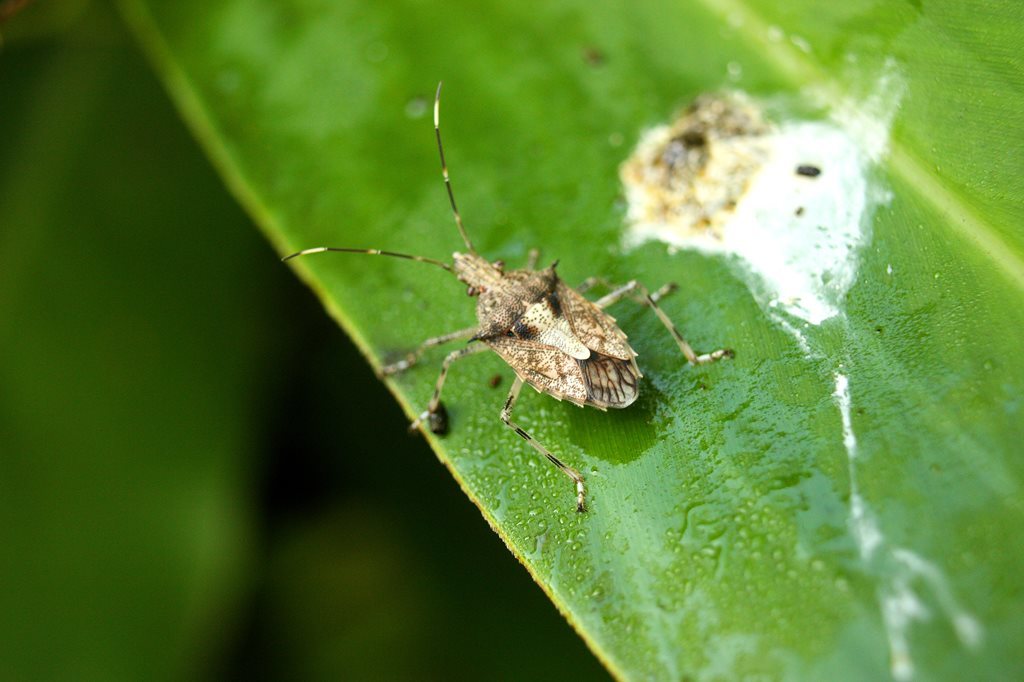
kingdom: Animalia
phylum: Arthropoda
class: Insecta
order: Hemiptera
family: Pentatomidae
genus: Bromocoris
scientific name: Bromocoris
